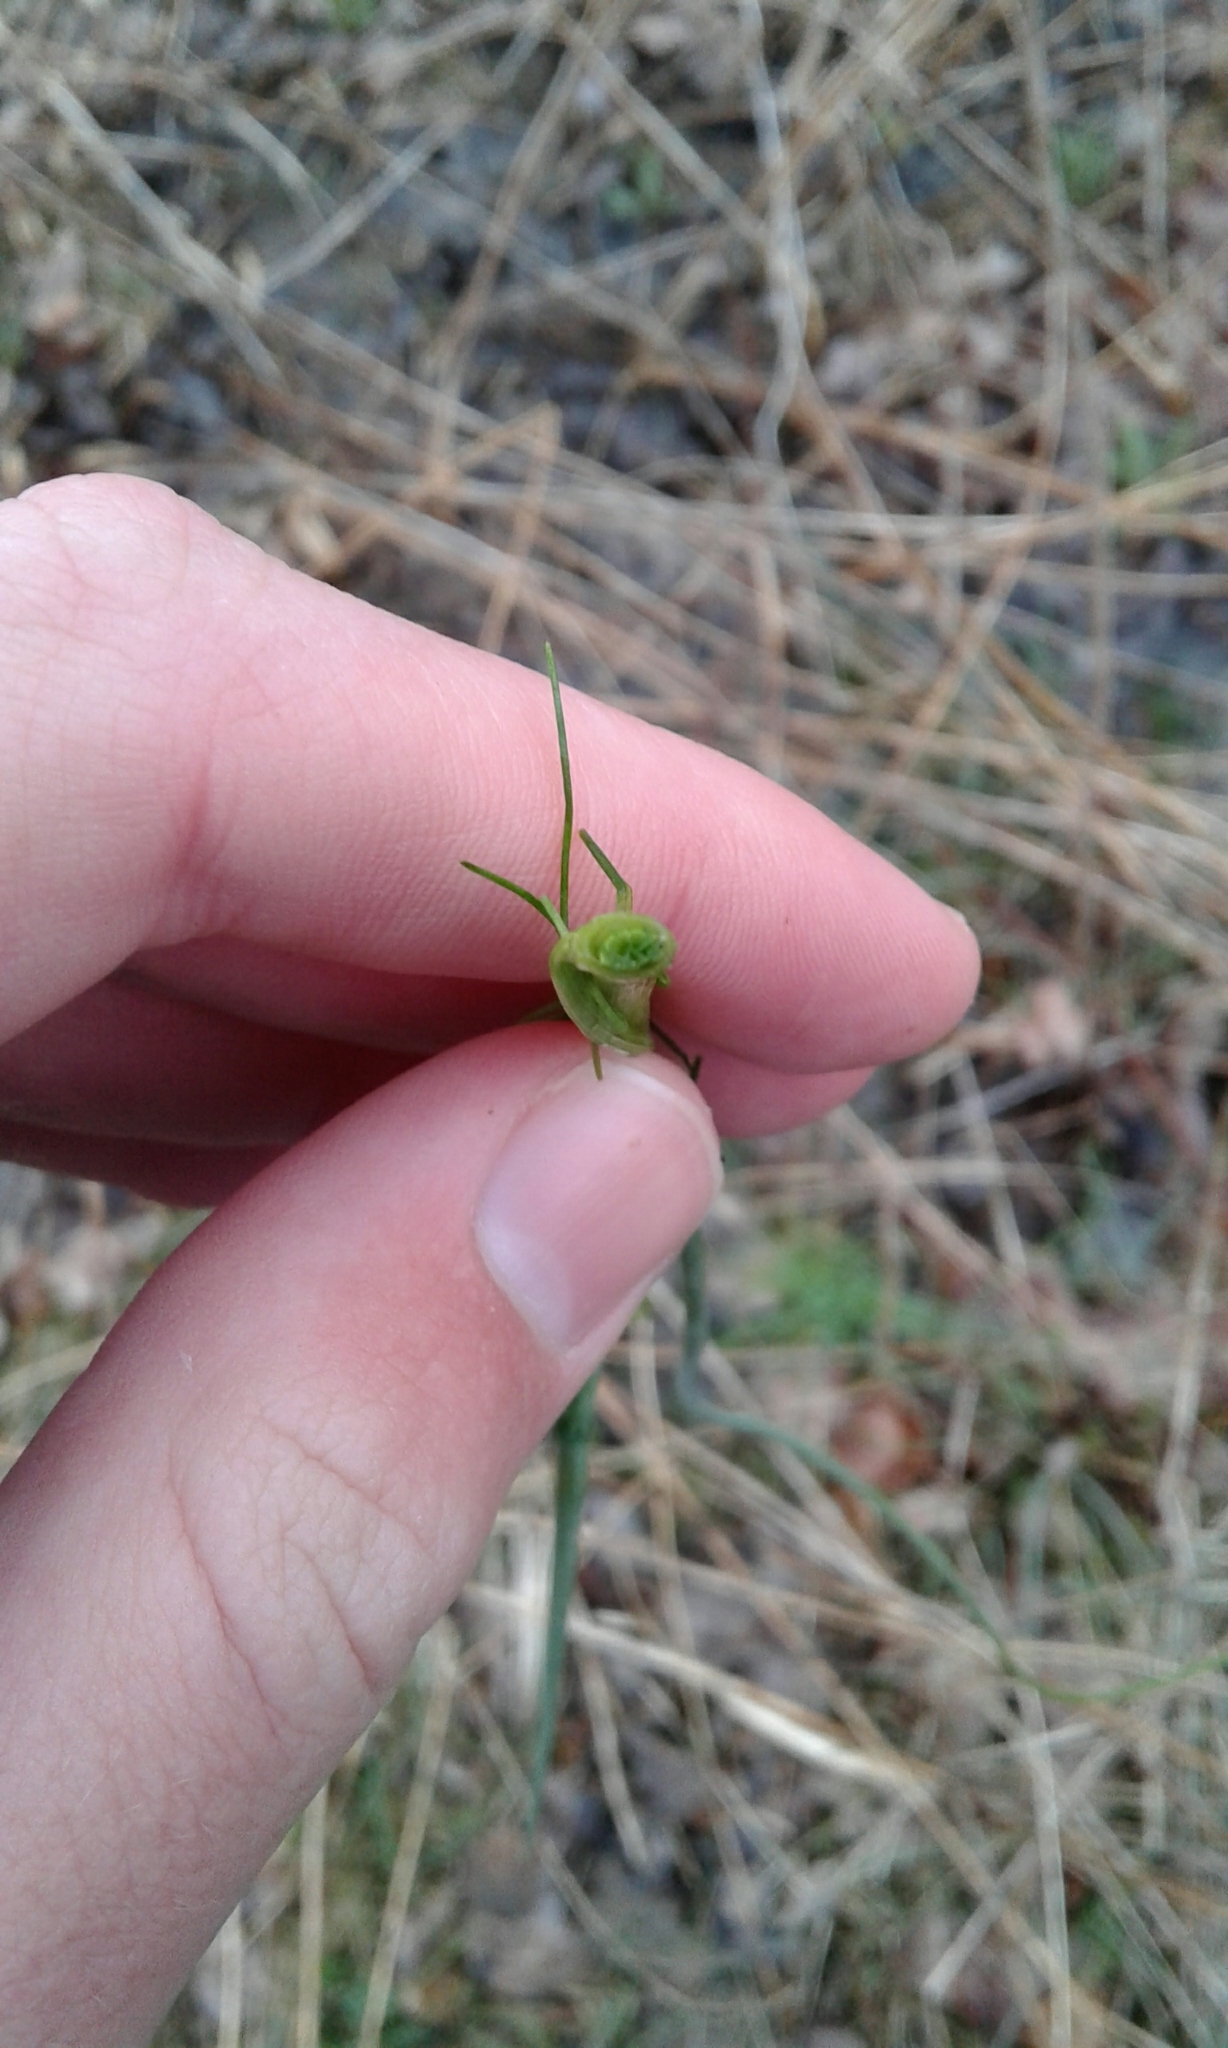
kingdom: Plantae
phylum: Tracheophyta
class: Liliopsida
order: Asparagales
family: Amaryllidaceae
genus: Allium
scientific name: Allium vineale
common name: Crow garlic
